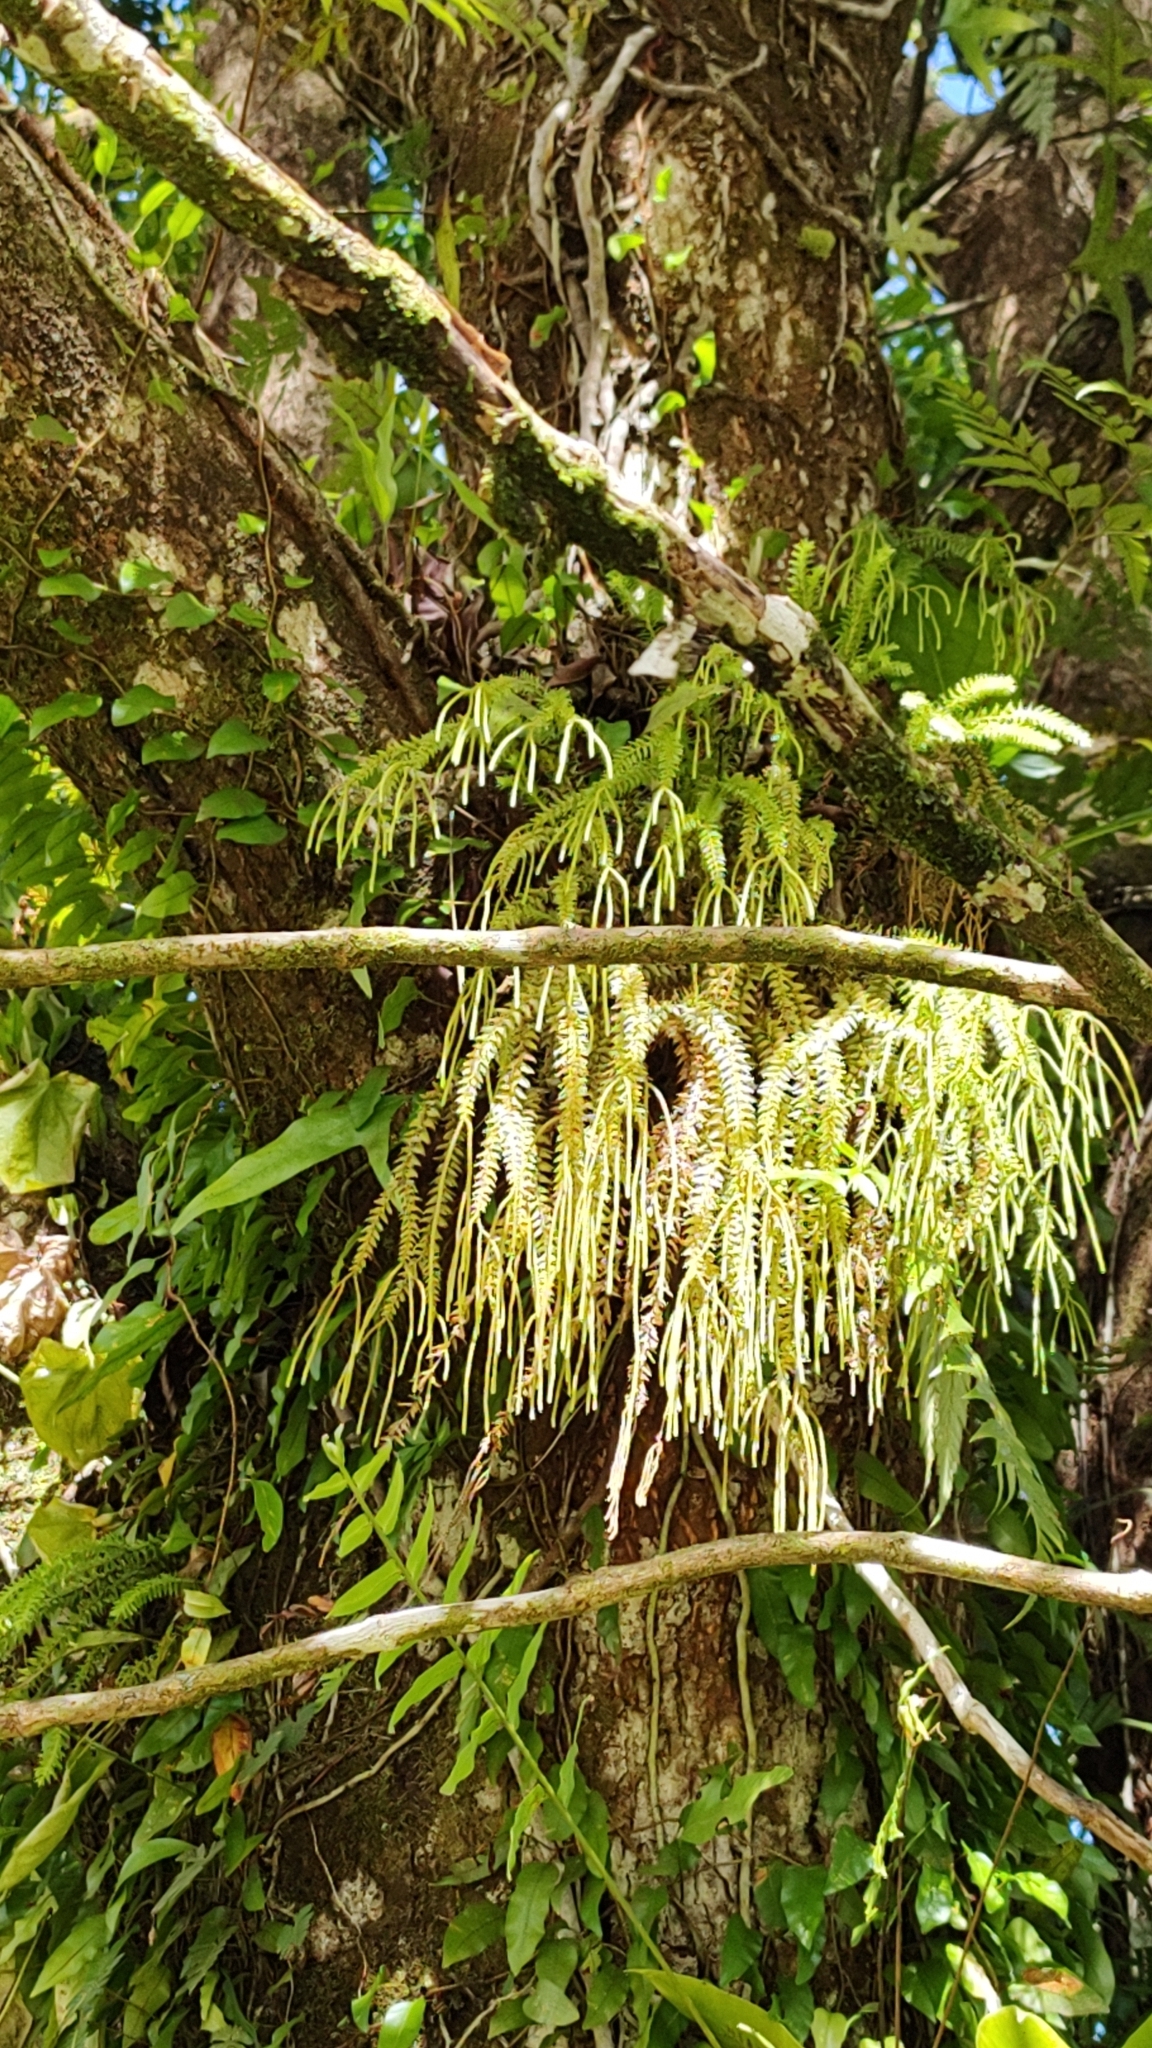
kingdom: Plantae
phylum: Tracheophyta
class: Lycopodiopsida
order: Lycopodiales
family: Lycopodiaceae
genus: Phlegmariurus
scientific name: Phlegmariurus phlegmaria
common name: Coarse tassel-fern
